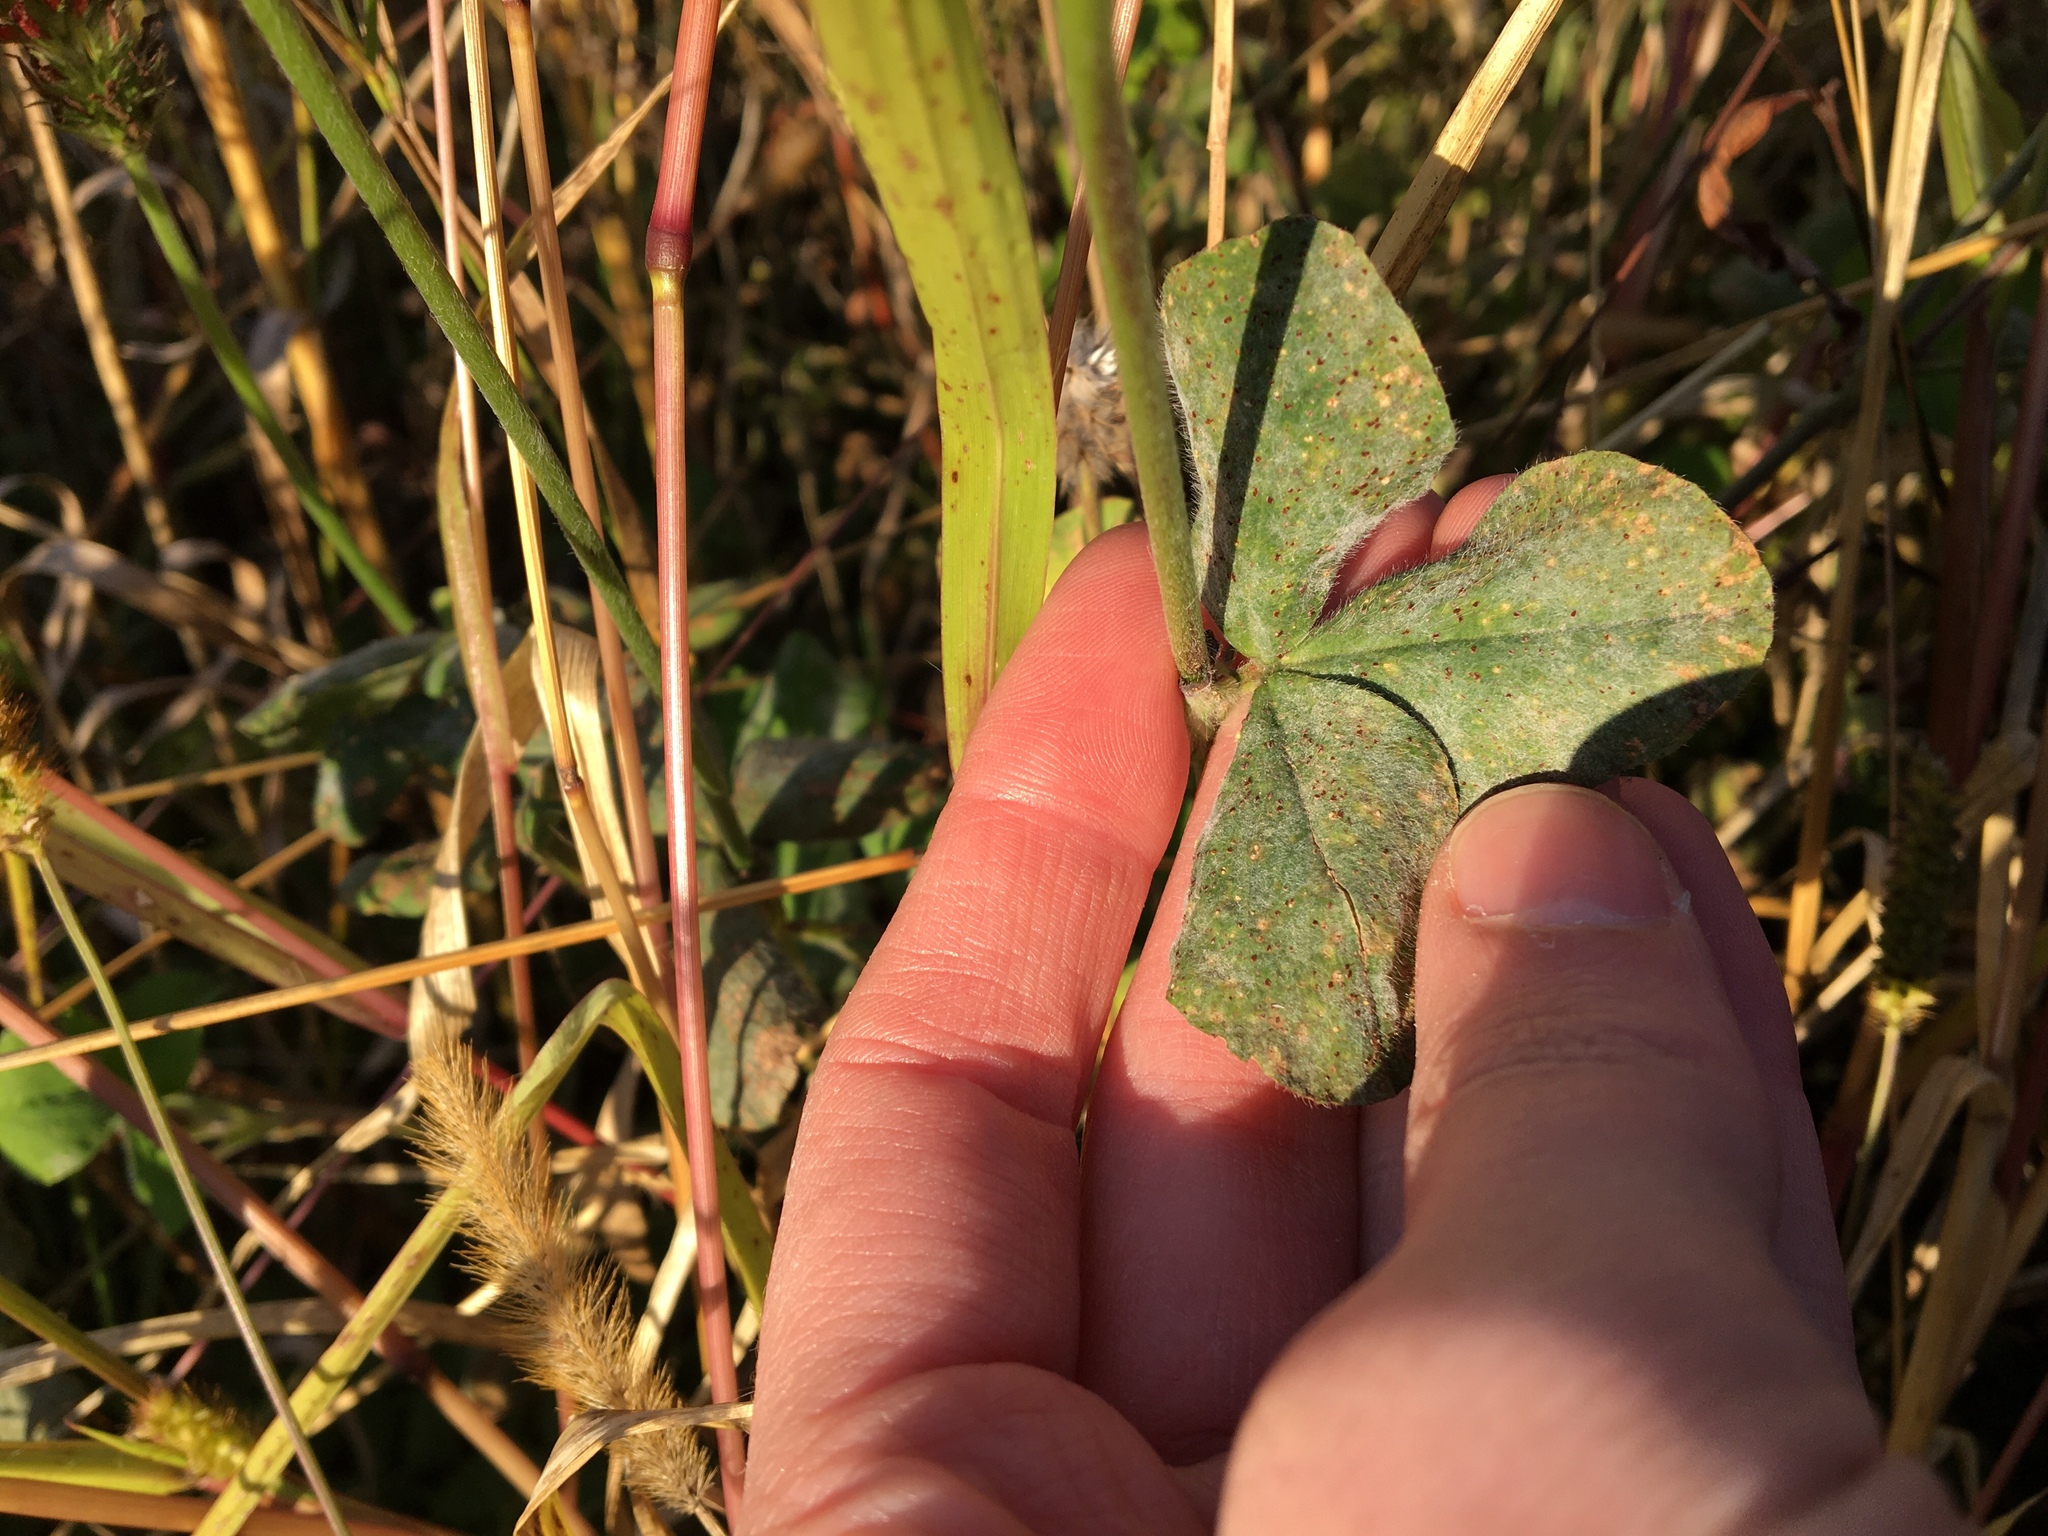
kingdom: Plantae
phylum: Tracheophyta
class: Magnoliopsida
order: Fabales
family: Fabaceae
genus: Trifolium
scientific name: Trifolium incarnatum
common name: Crimson clover
